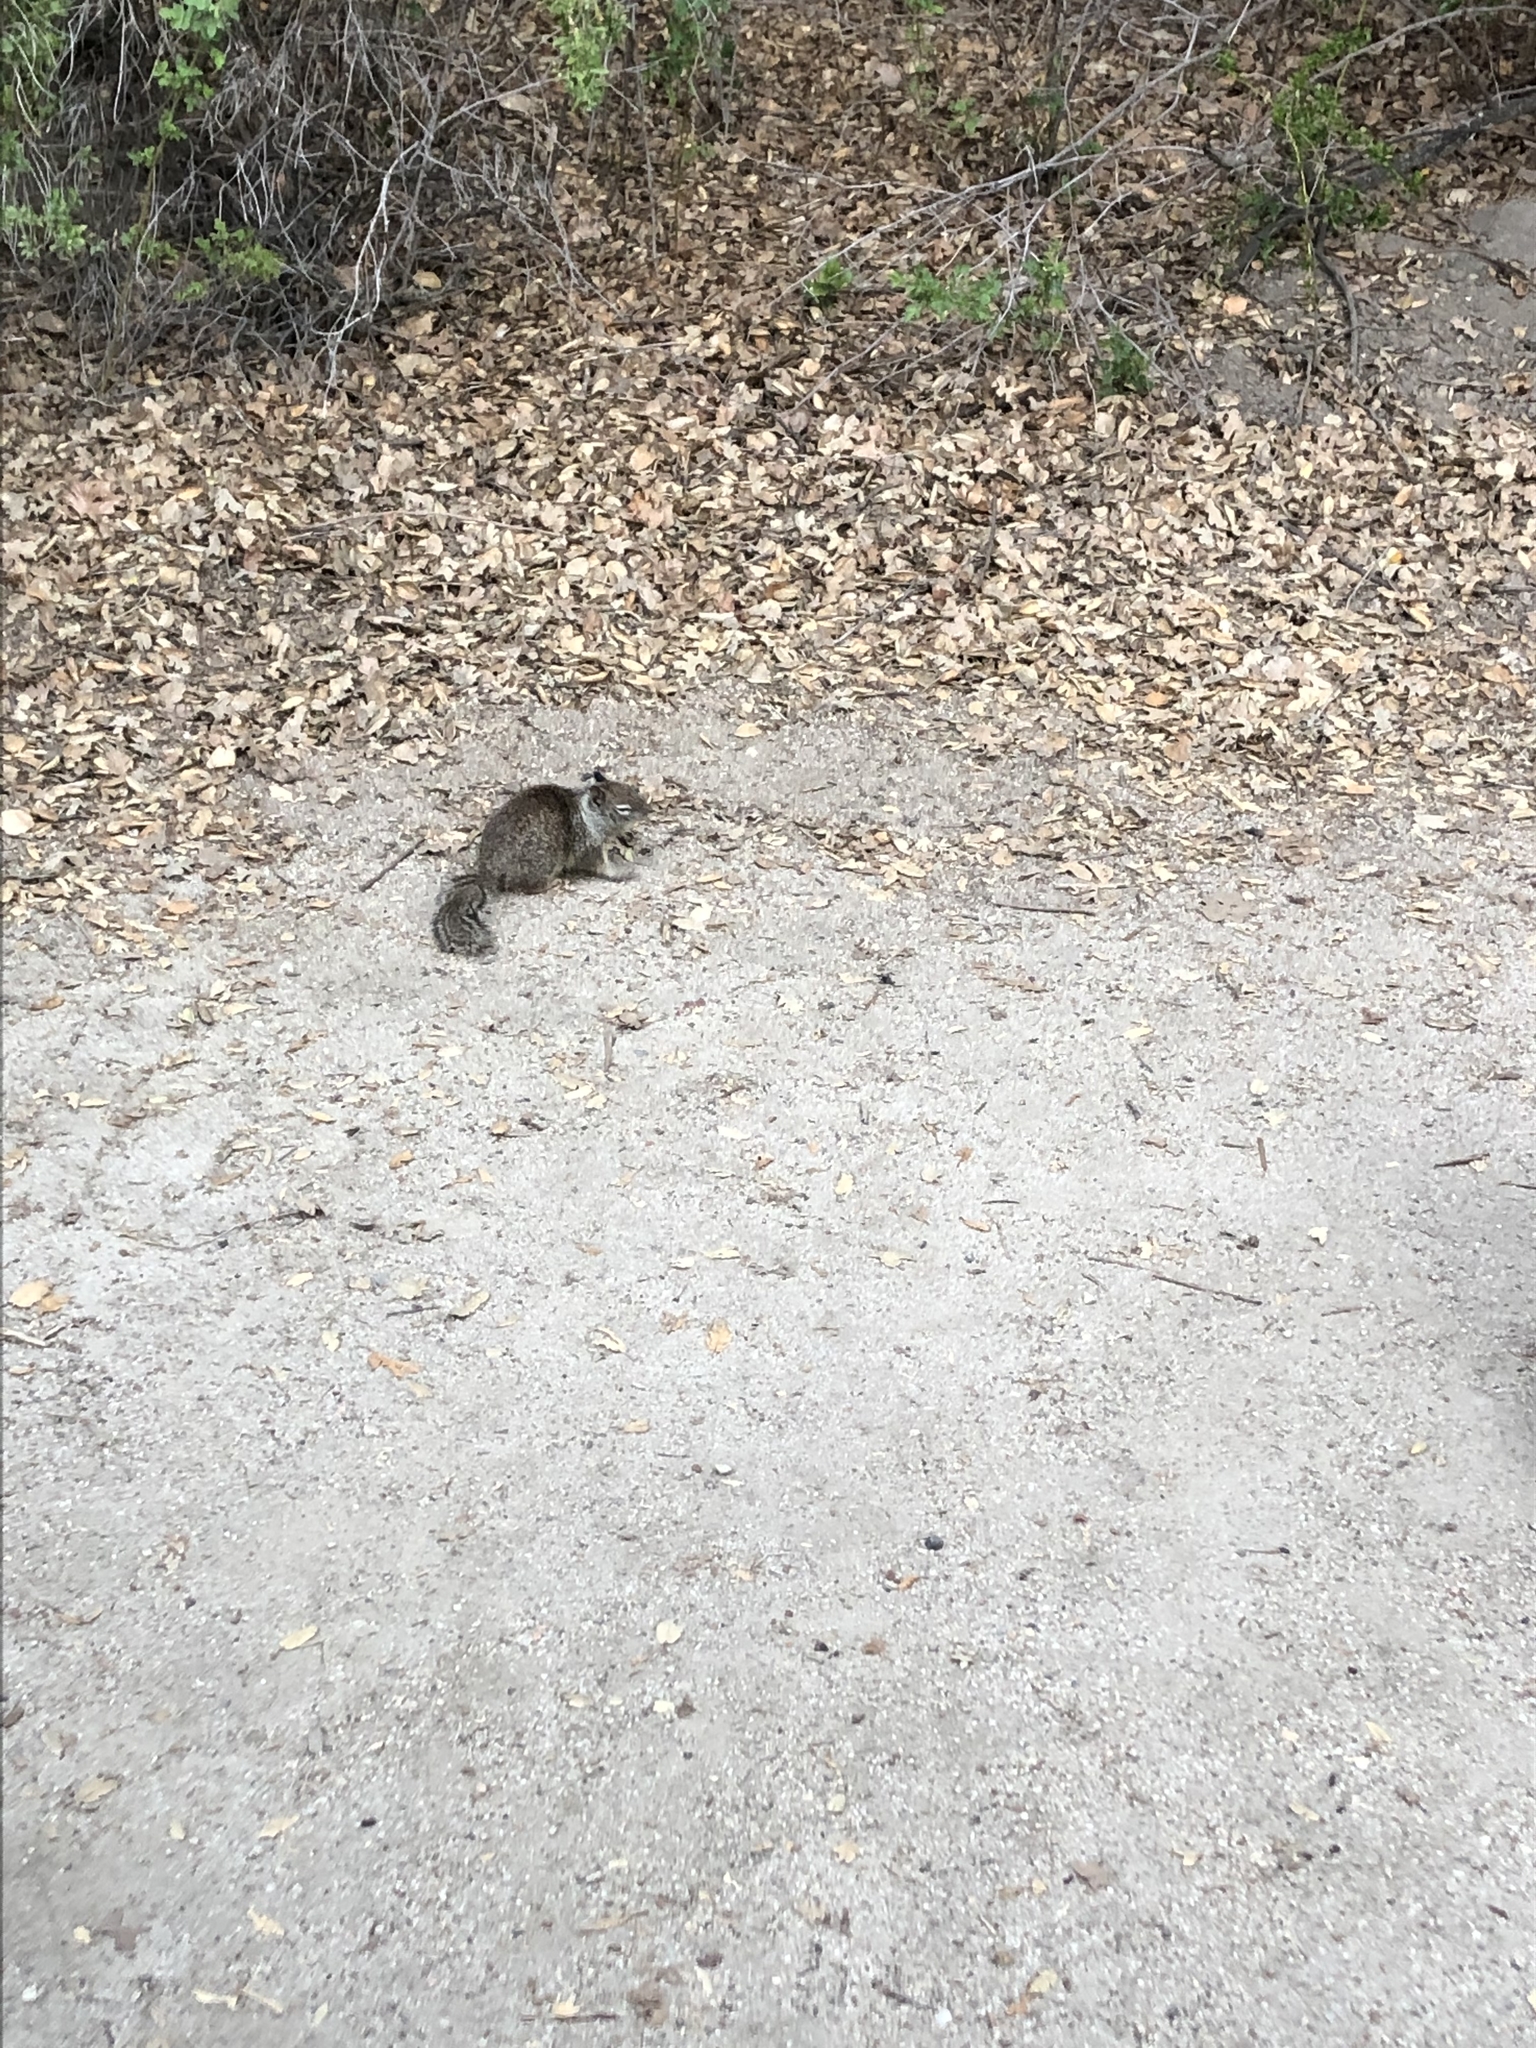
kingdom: Animalia
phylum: Chordata
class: Mammalia
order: Rodentia
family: Sciuridae
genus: Otospermophilus
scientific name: Otospermophilus beecheyi
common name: California ground squirrel
